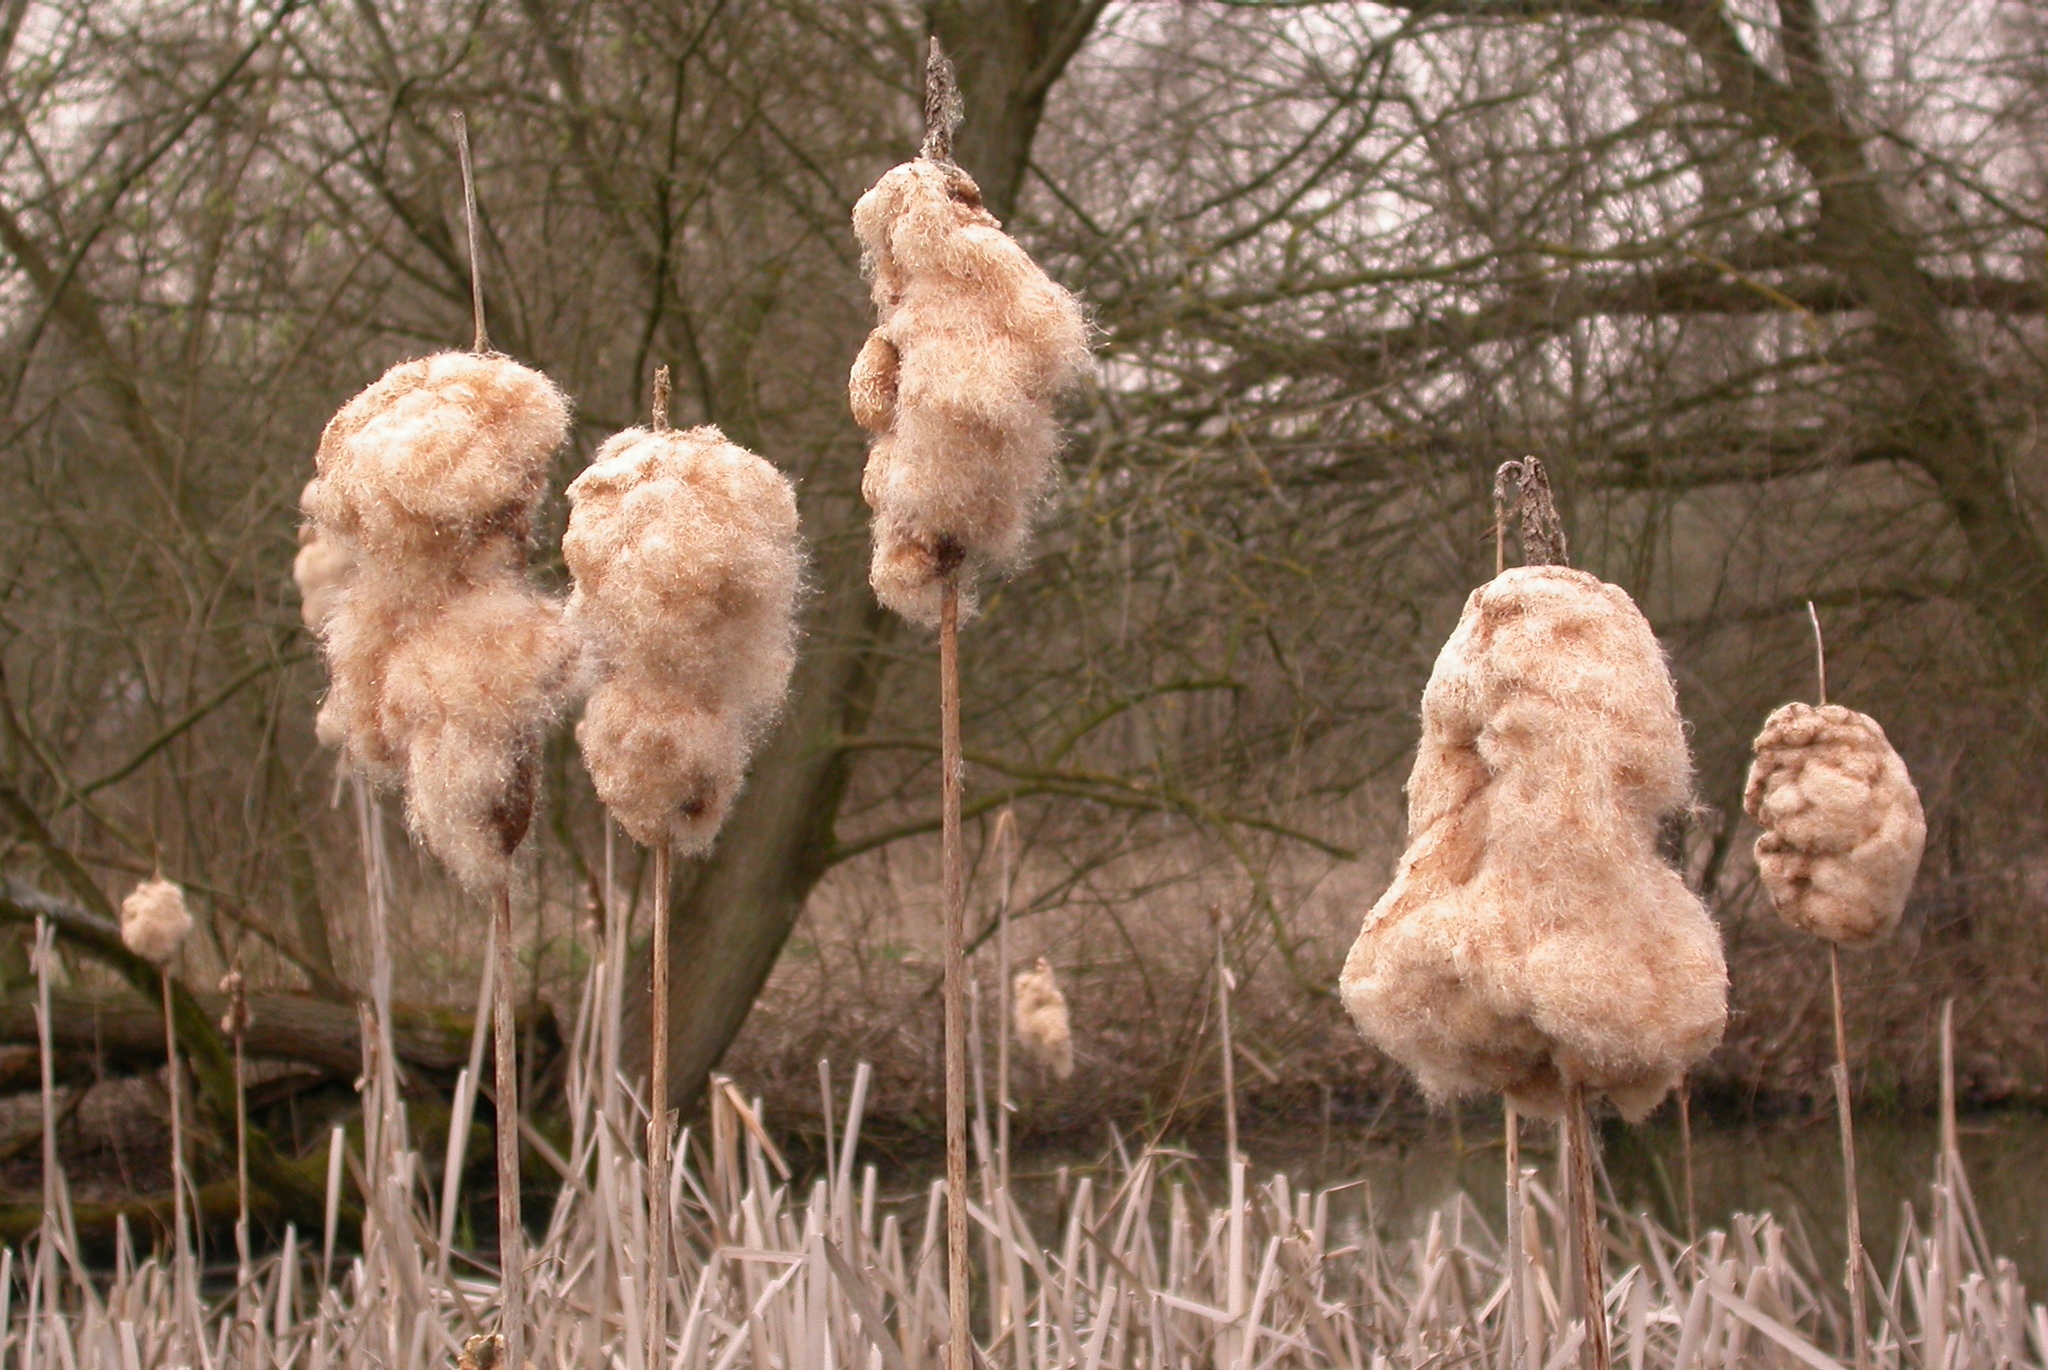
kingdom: Plantae
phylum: Tracheophyta
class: Liliopsida
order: Poales
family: Typhaceae
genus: Typha
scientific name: Typha latifolia
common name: Broadleaf cattail
